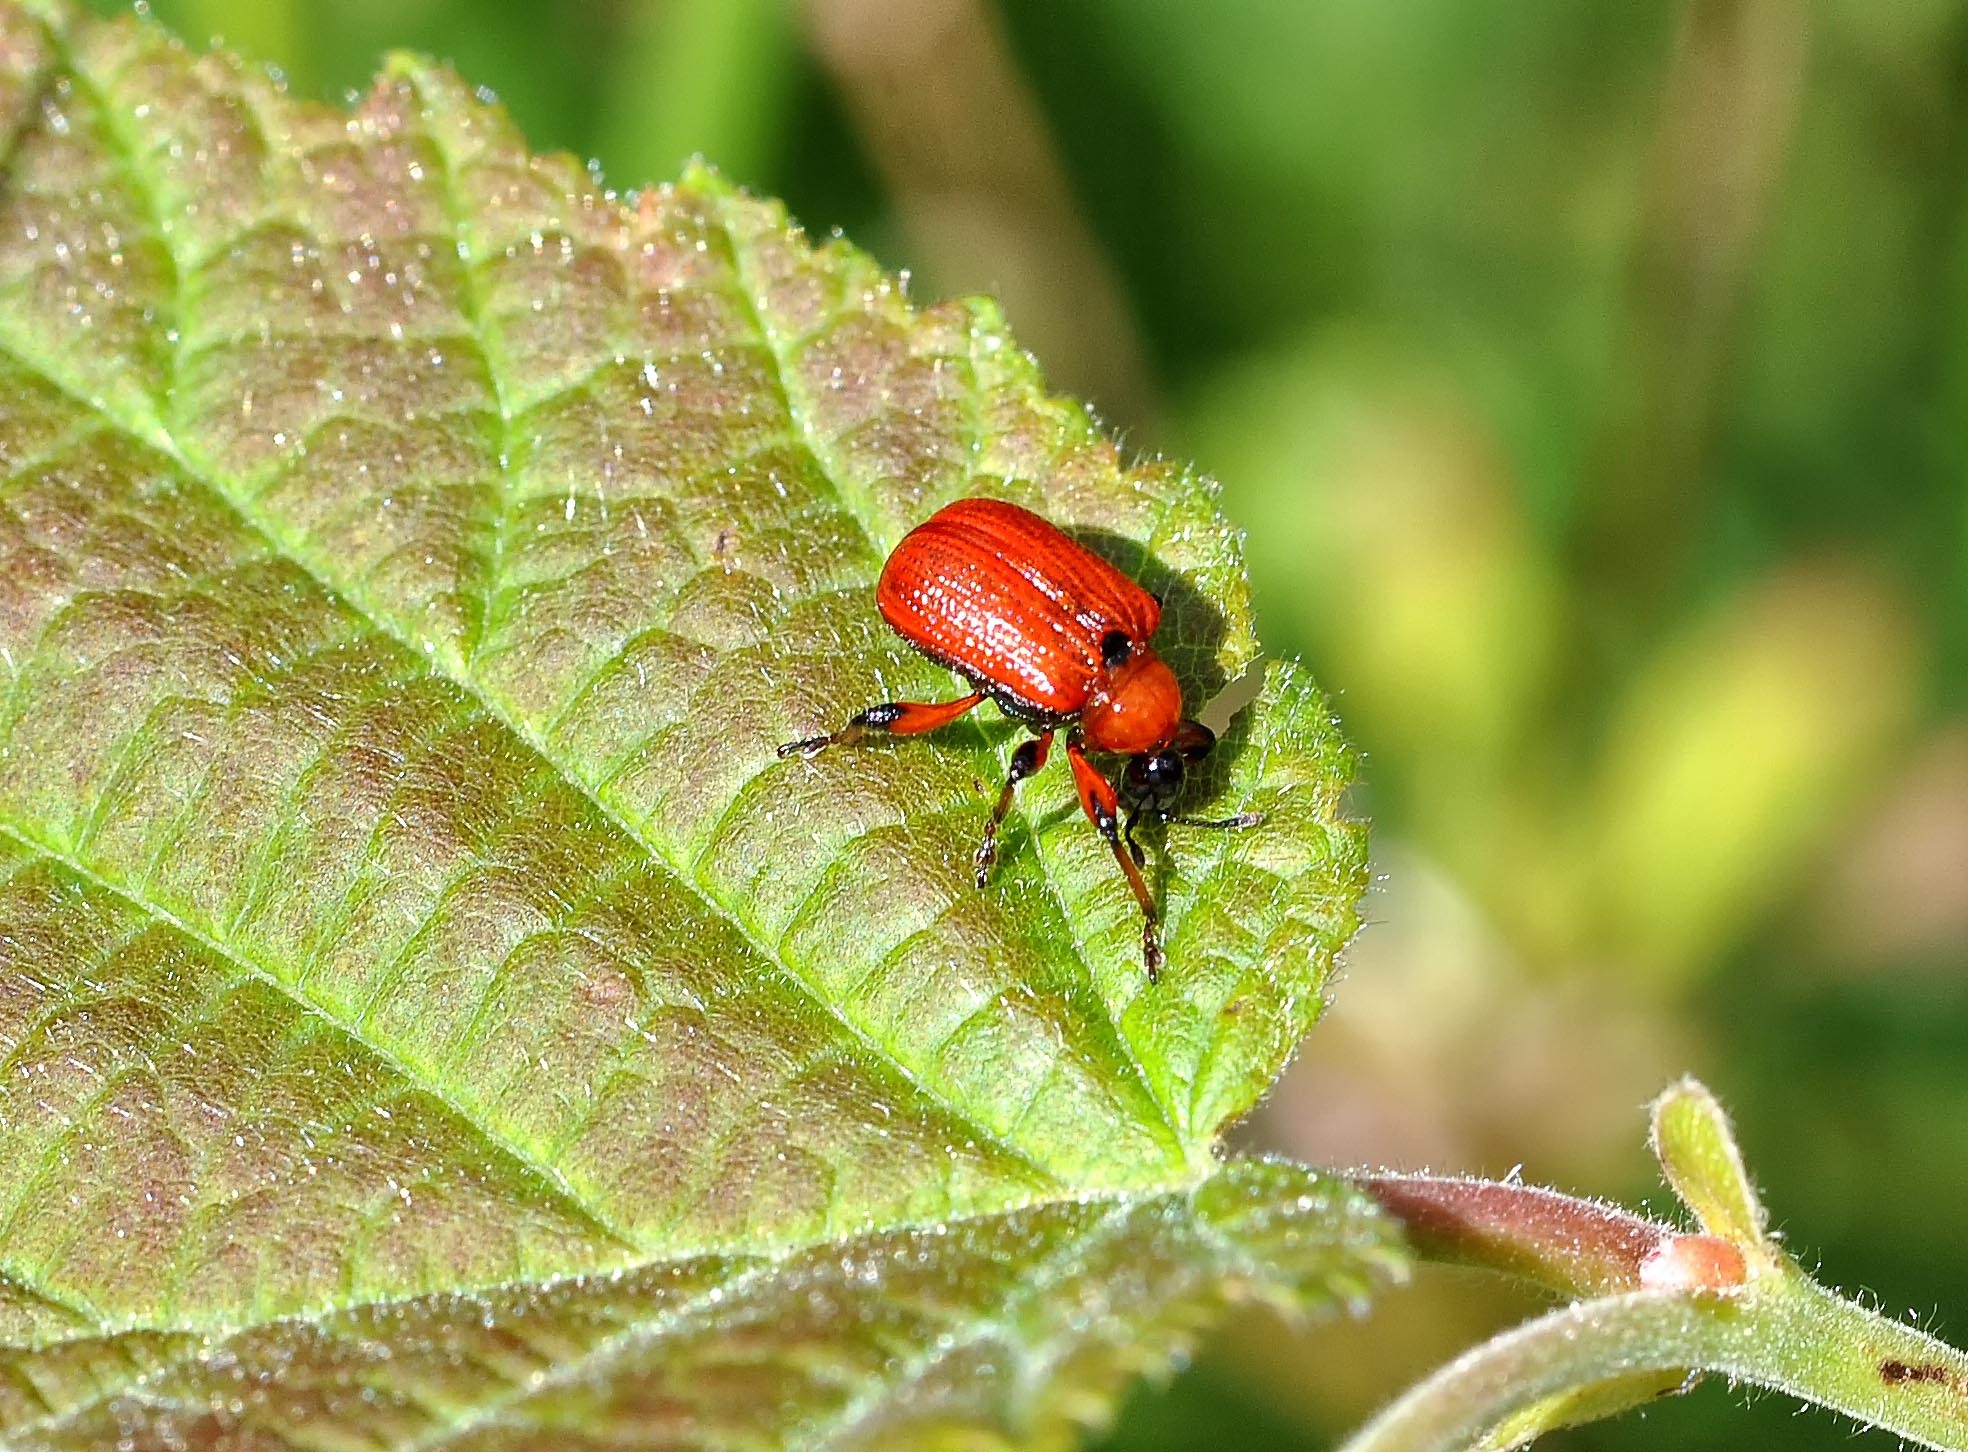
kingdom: Animalia
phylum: Arthropoda
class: Insecta
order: Coleoptera
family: Attelabidae
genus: Apoderus
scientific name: Apoderus coryli
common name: Hazel leaf roller
